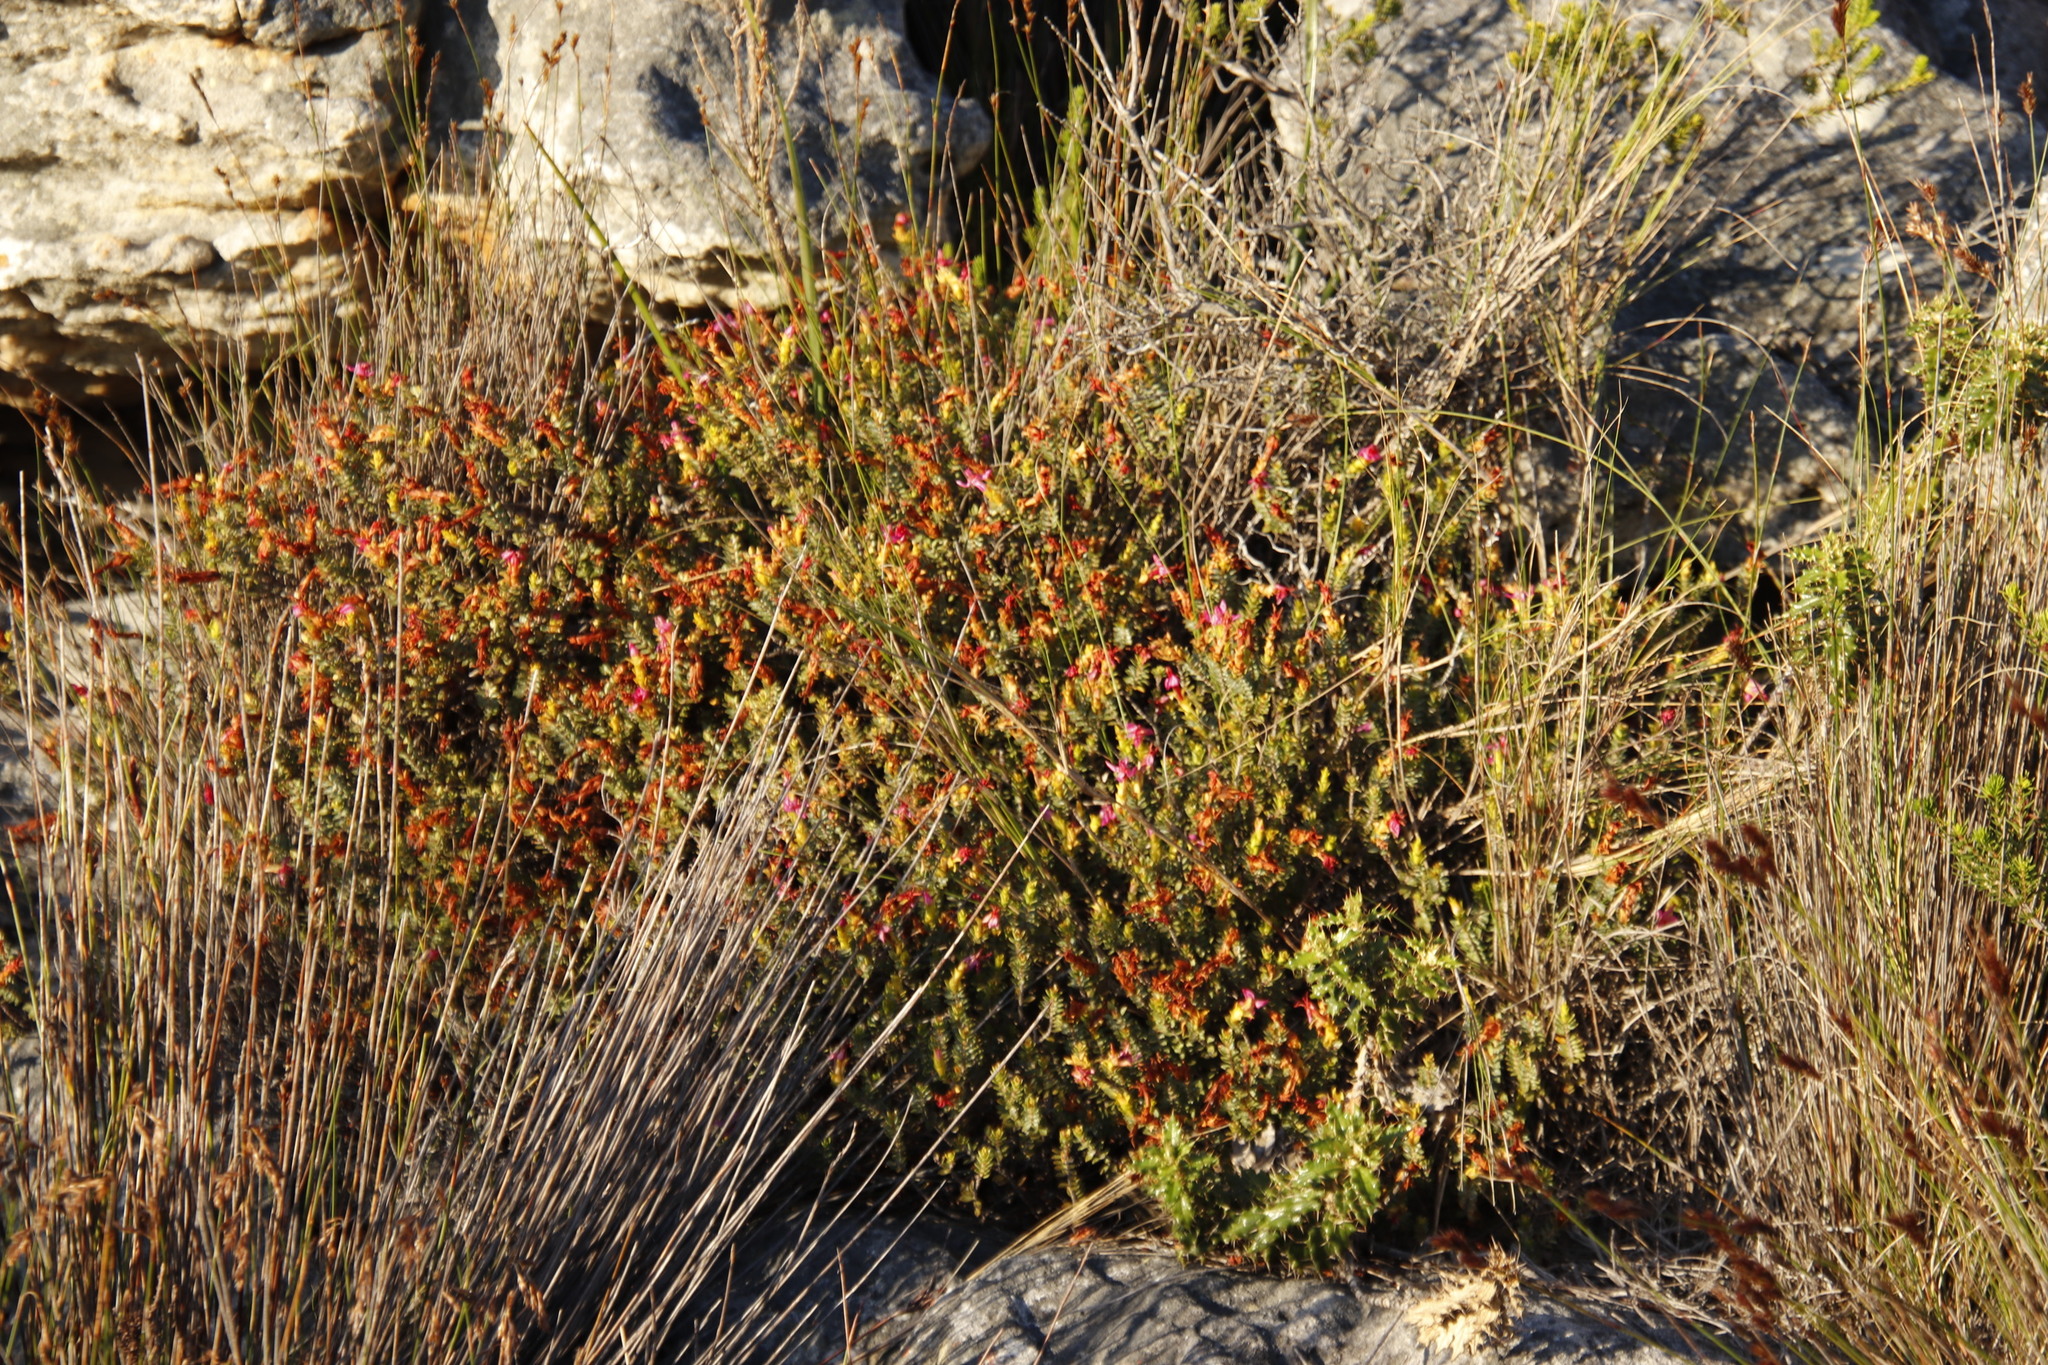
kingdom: Plantae
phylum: Tracheophyta
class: Magnoliopsida
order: Myrtales
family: Penaeaceae
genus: Saltera
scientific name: Saltera sarcocolla
